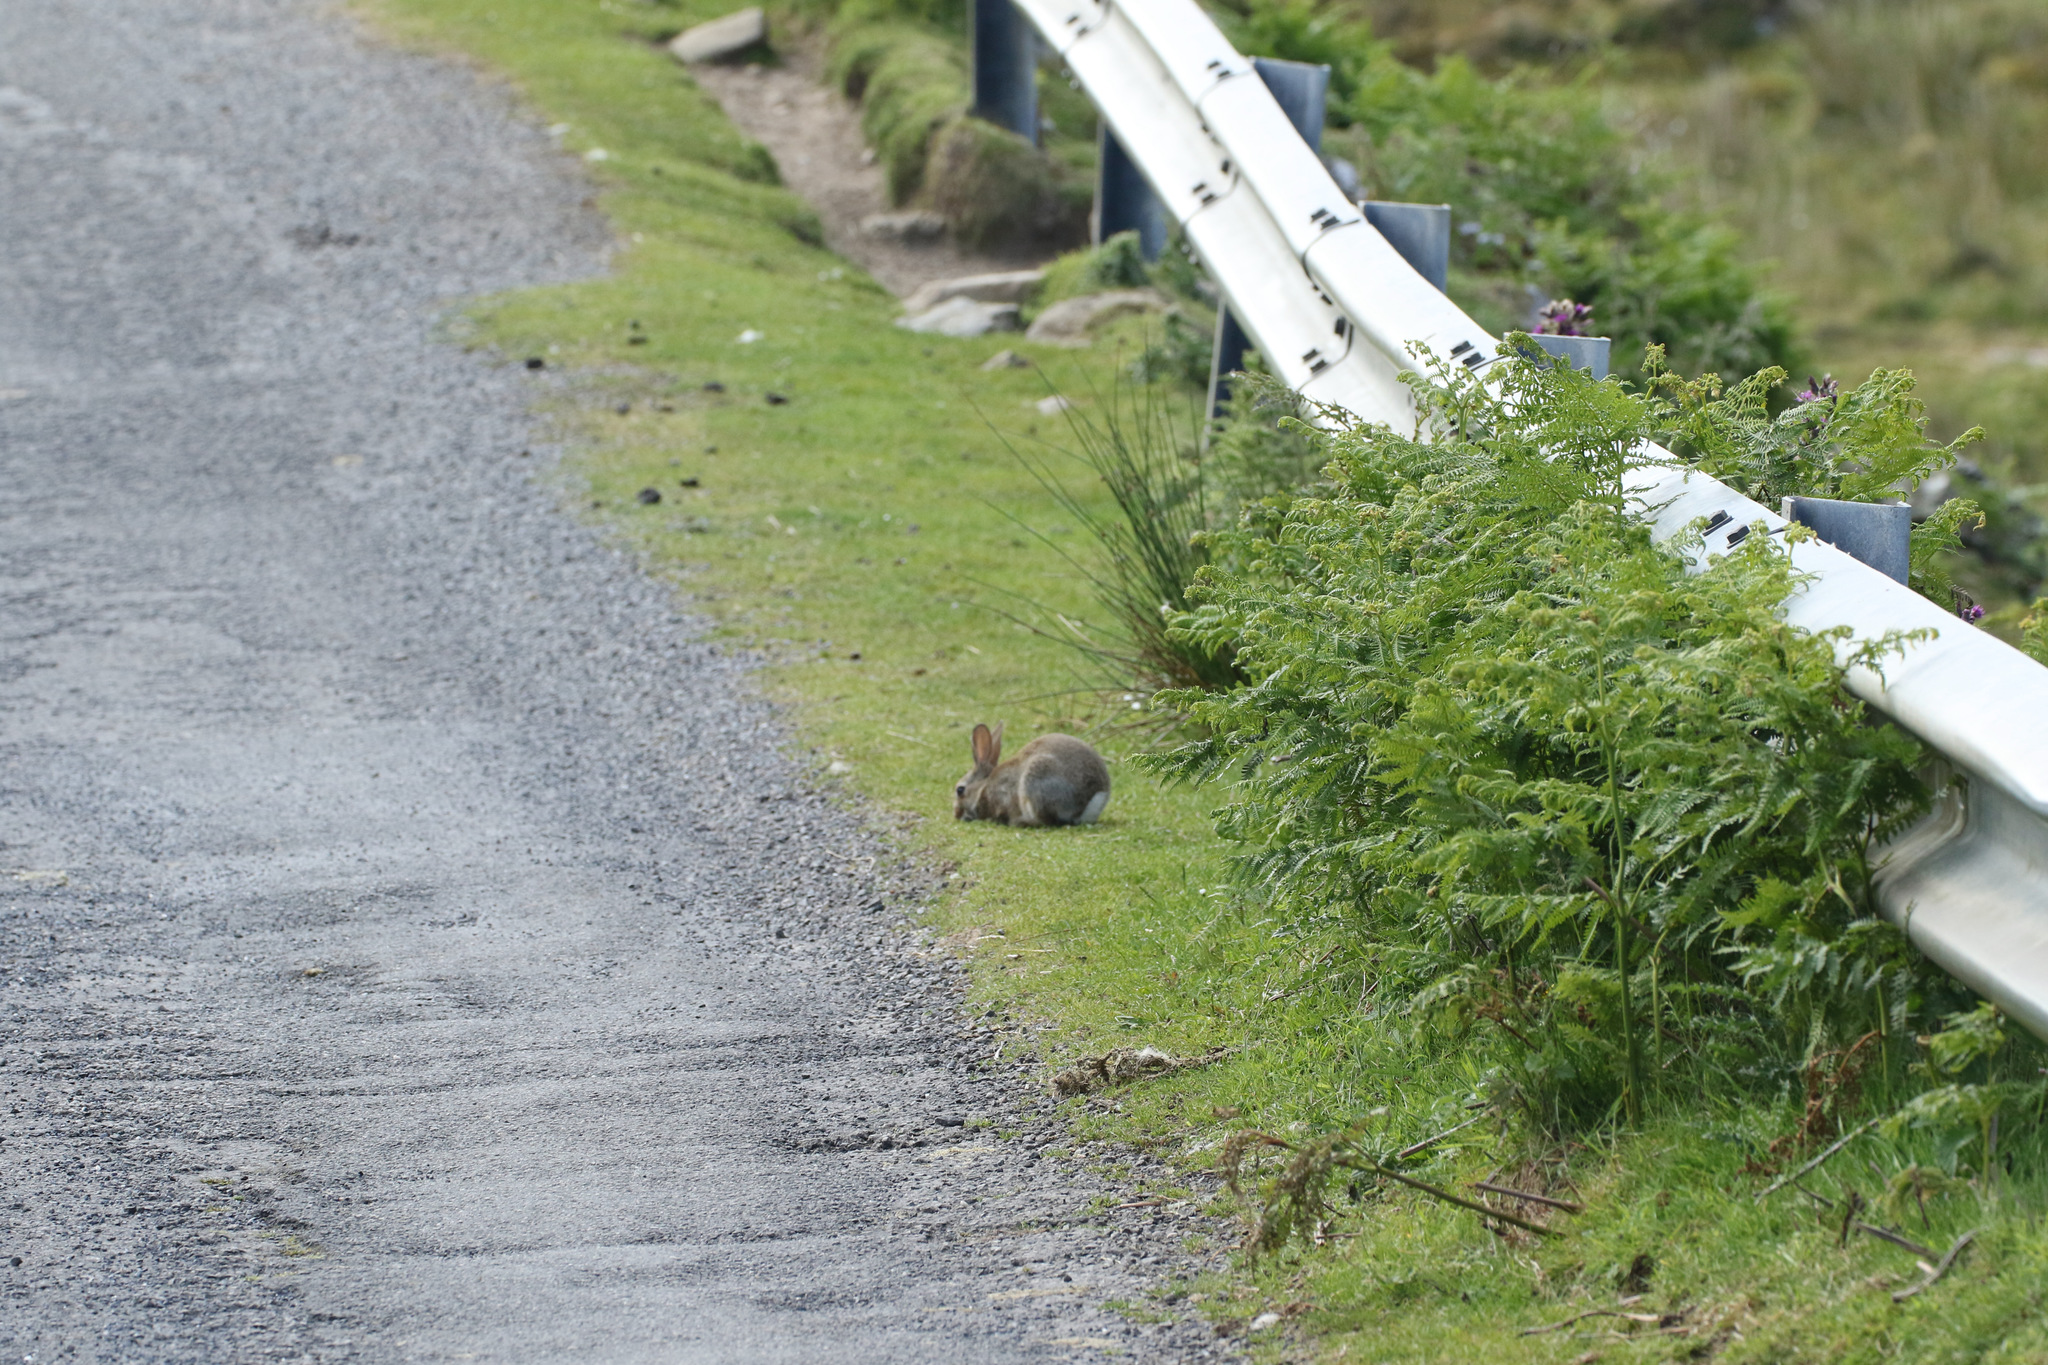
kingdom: Animalia
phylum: Chordata
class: Mammalia
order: Lagomorpha
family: Leporidae
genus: Oryctolagus
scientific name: Oryctolagus cuniculus
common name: European rabbit
